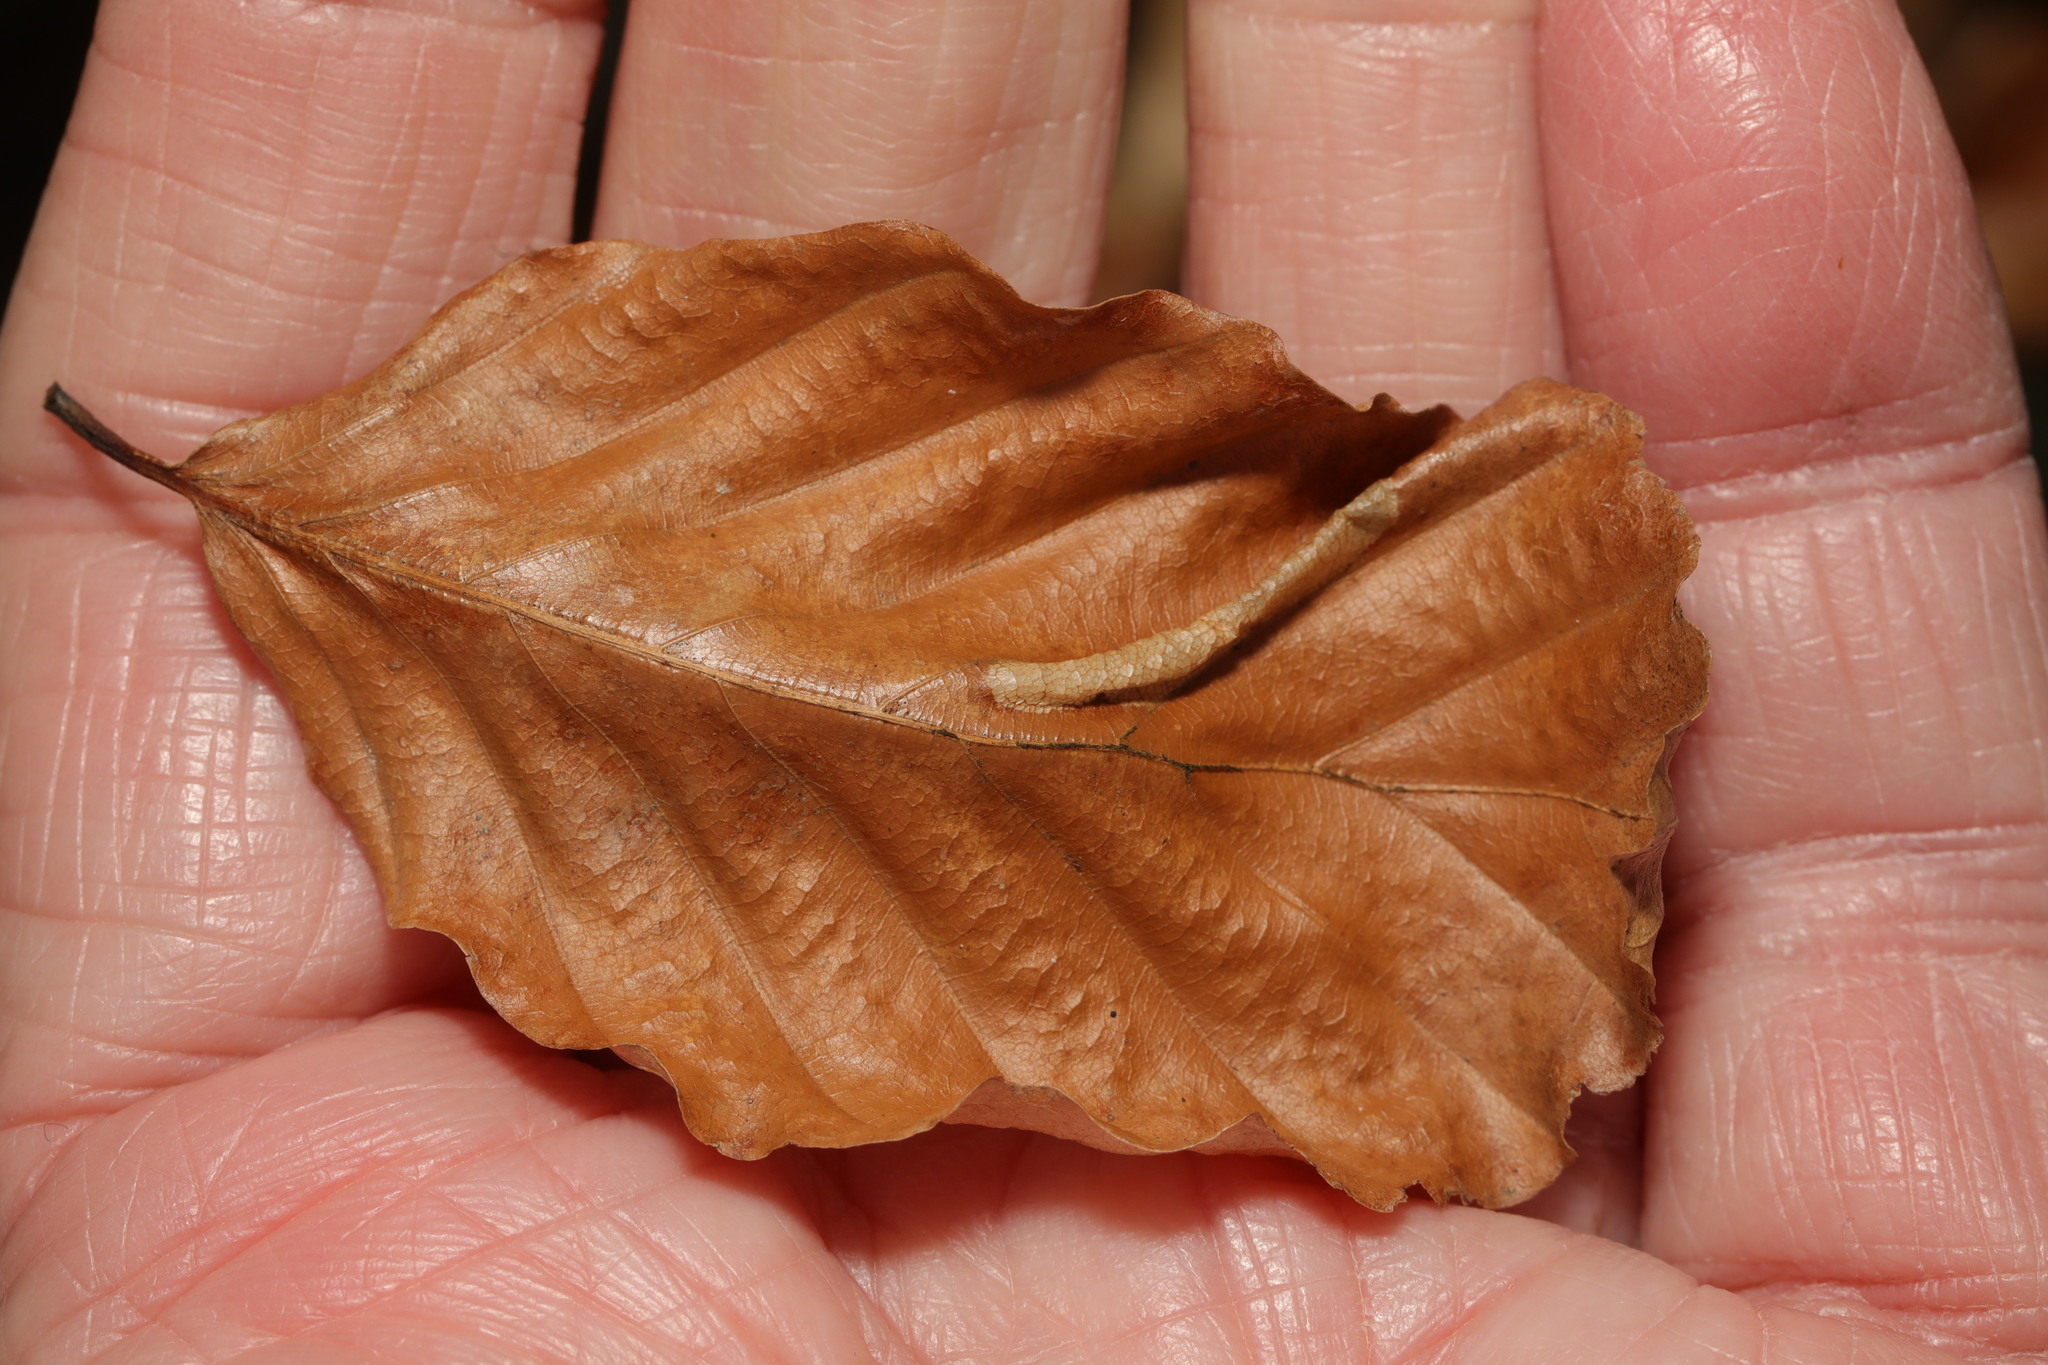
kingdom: Animalia
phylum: Arthropoda
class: Insecta
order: Lepidoptera
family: Gracillariidae
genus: Phyllonorycter
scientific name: Phyllonorycter maestingella
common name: Beech midget
